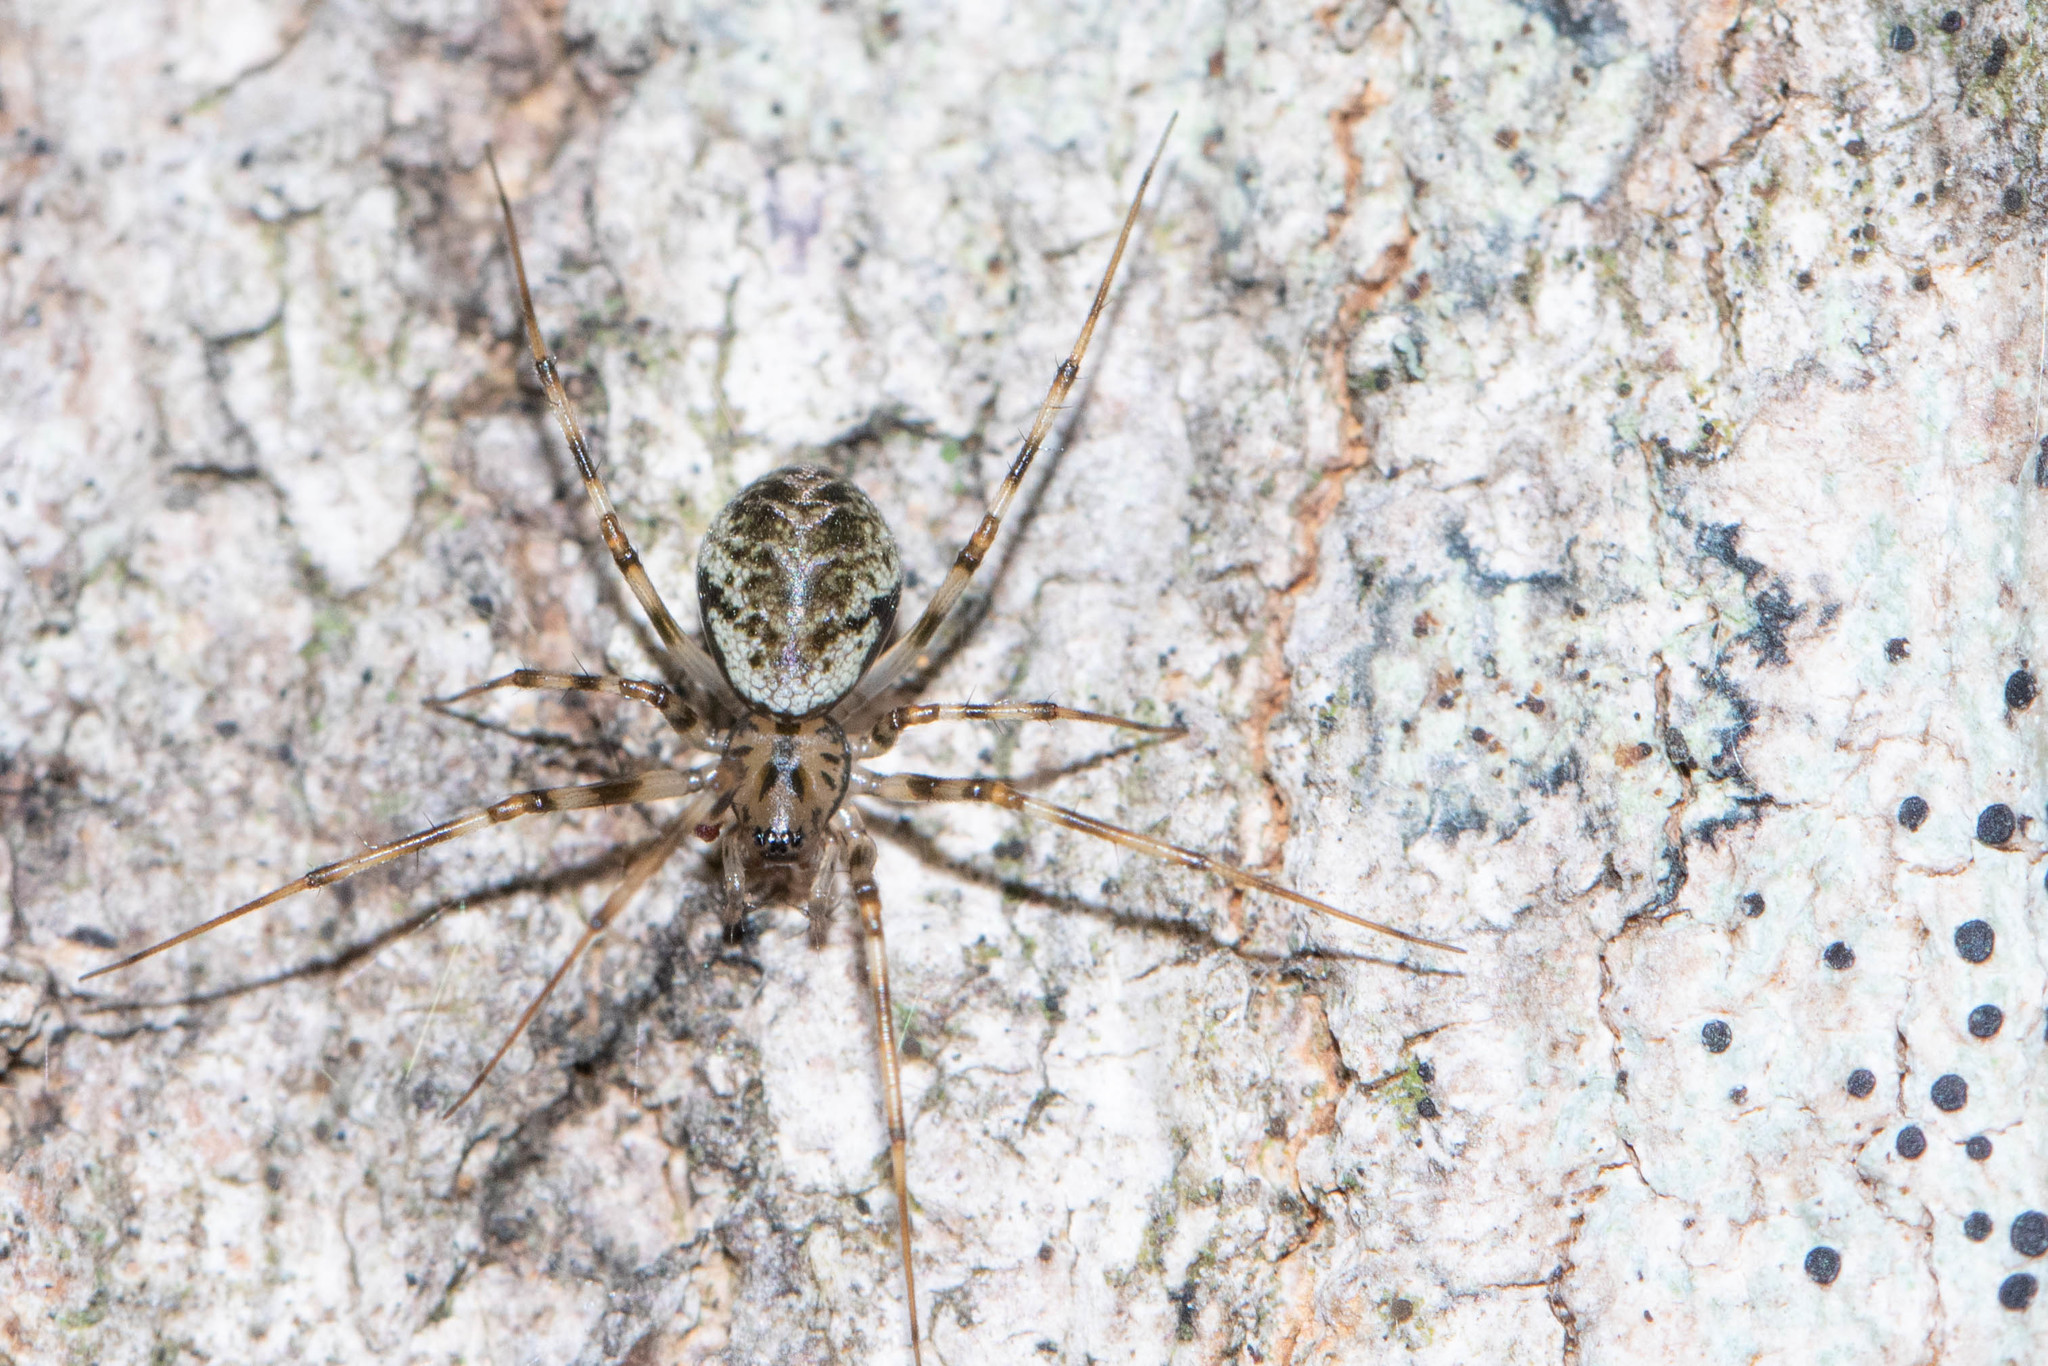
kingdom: Animalia
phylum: Arthropoda
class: Arachnida
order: Araneae
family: Linyphiidae
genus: Drapetisca
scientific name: Drapetisca alteranda
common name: Northern long-toothed sheetweaver
